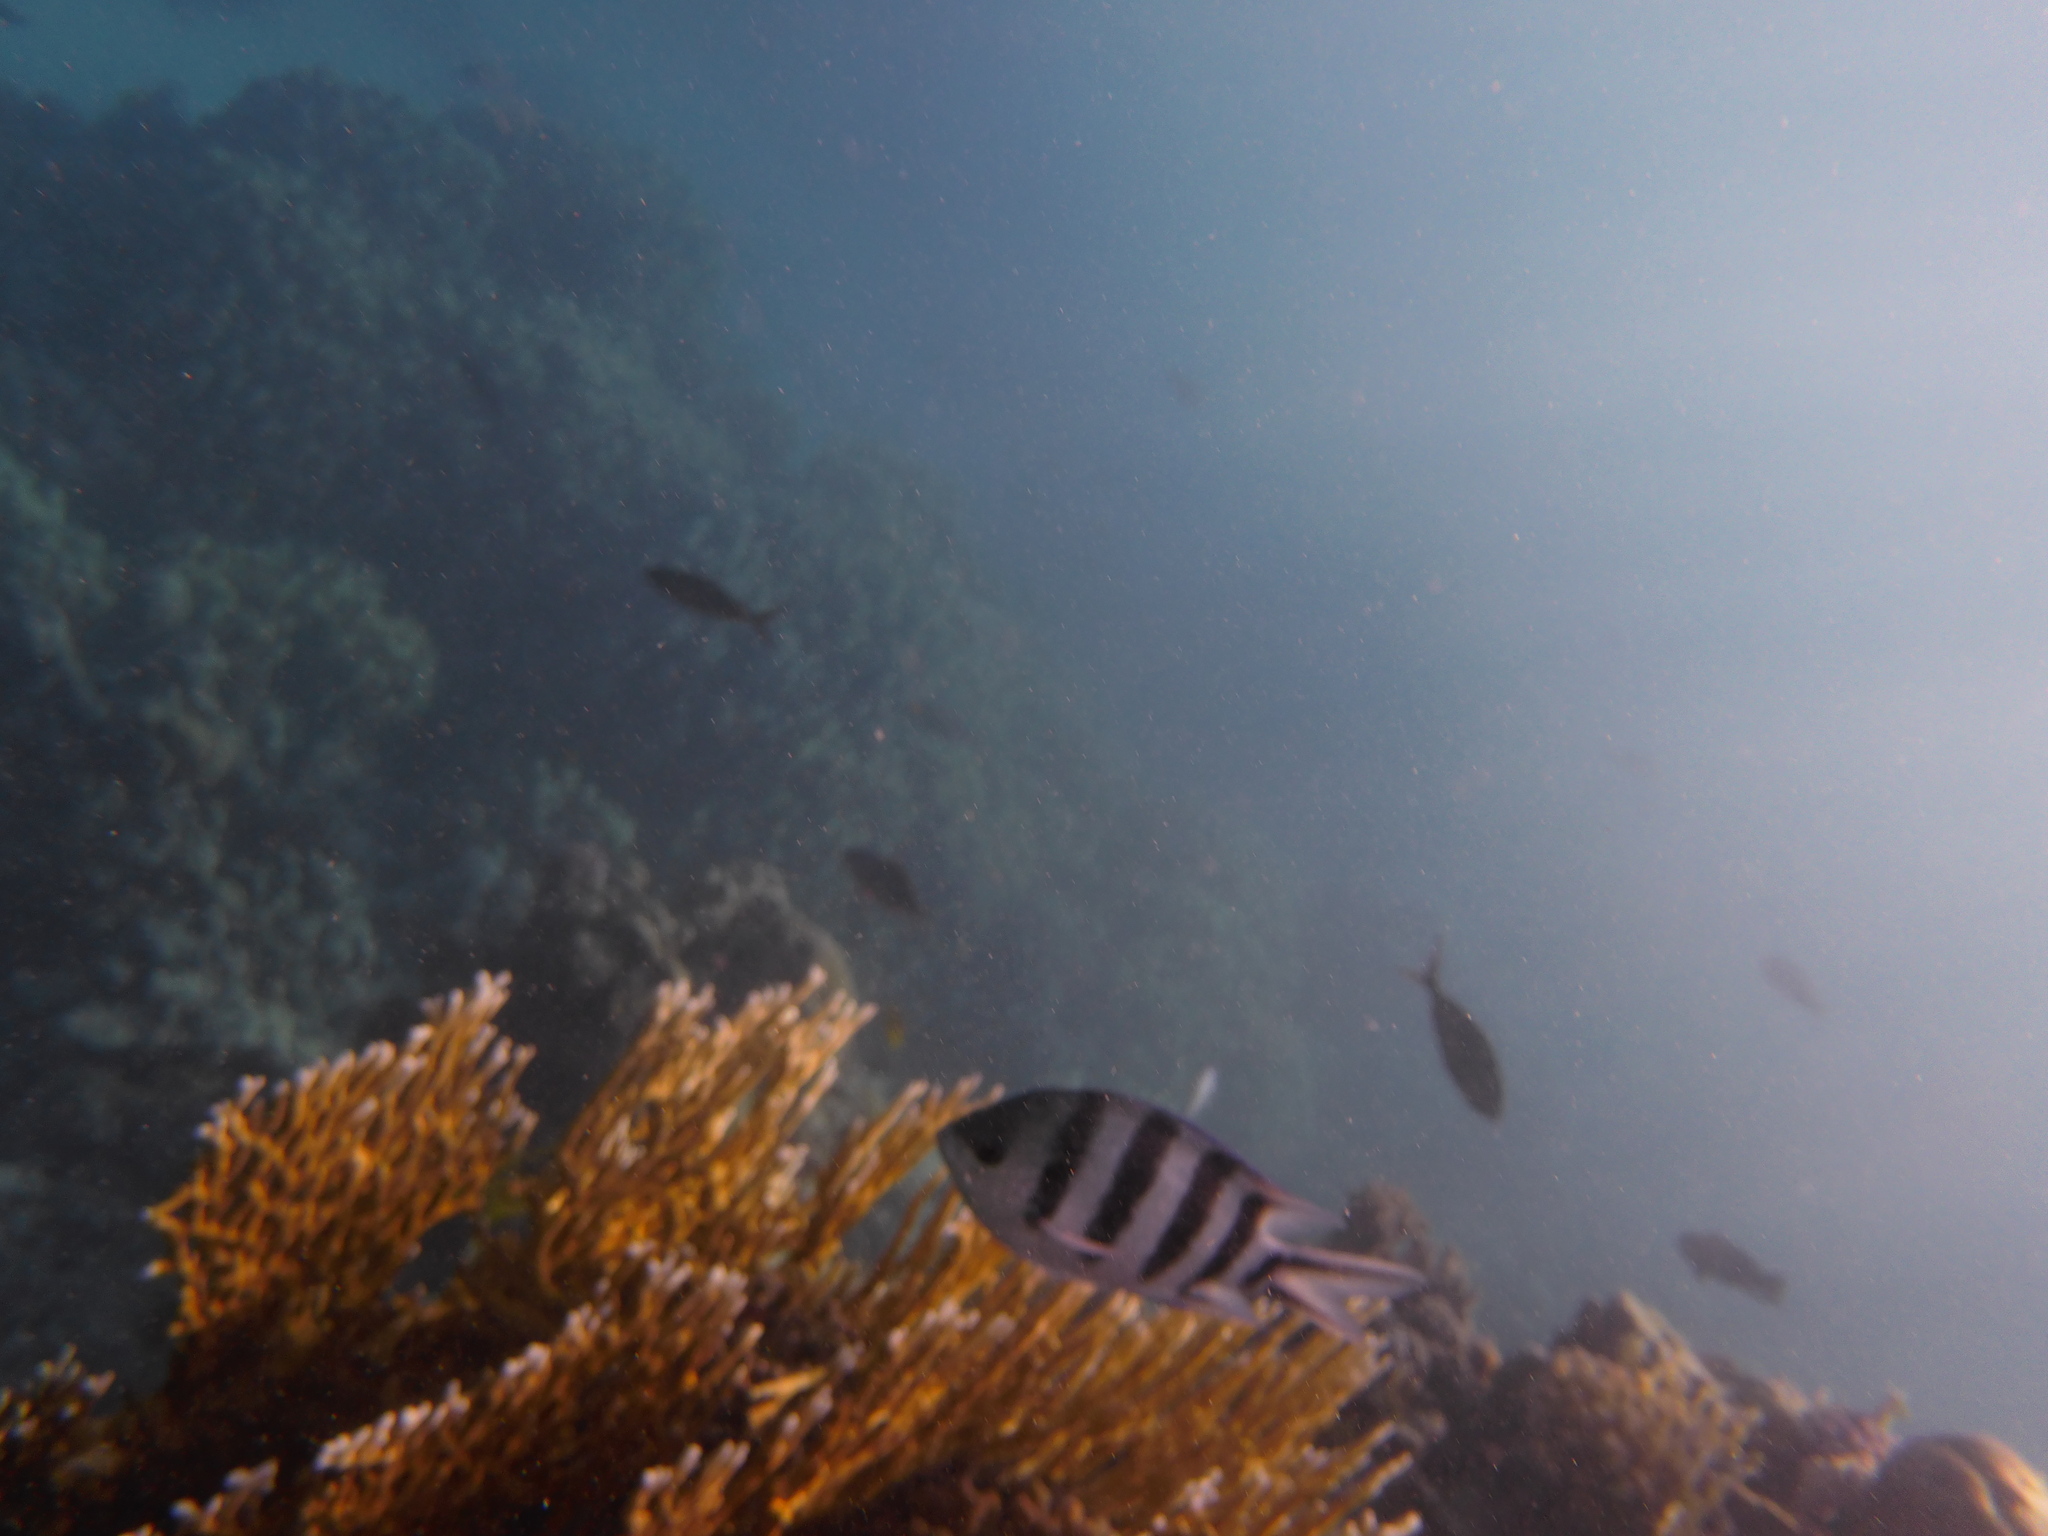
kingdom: Animalia
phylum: Chordata
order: Perciformes
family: Pomacentridae
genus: Abudefduf
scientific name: Abudefduf sexfasciatus
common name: Scissortail sergeant
